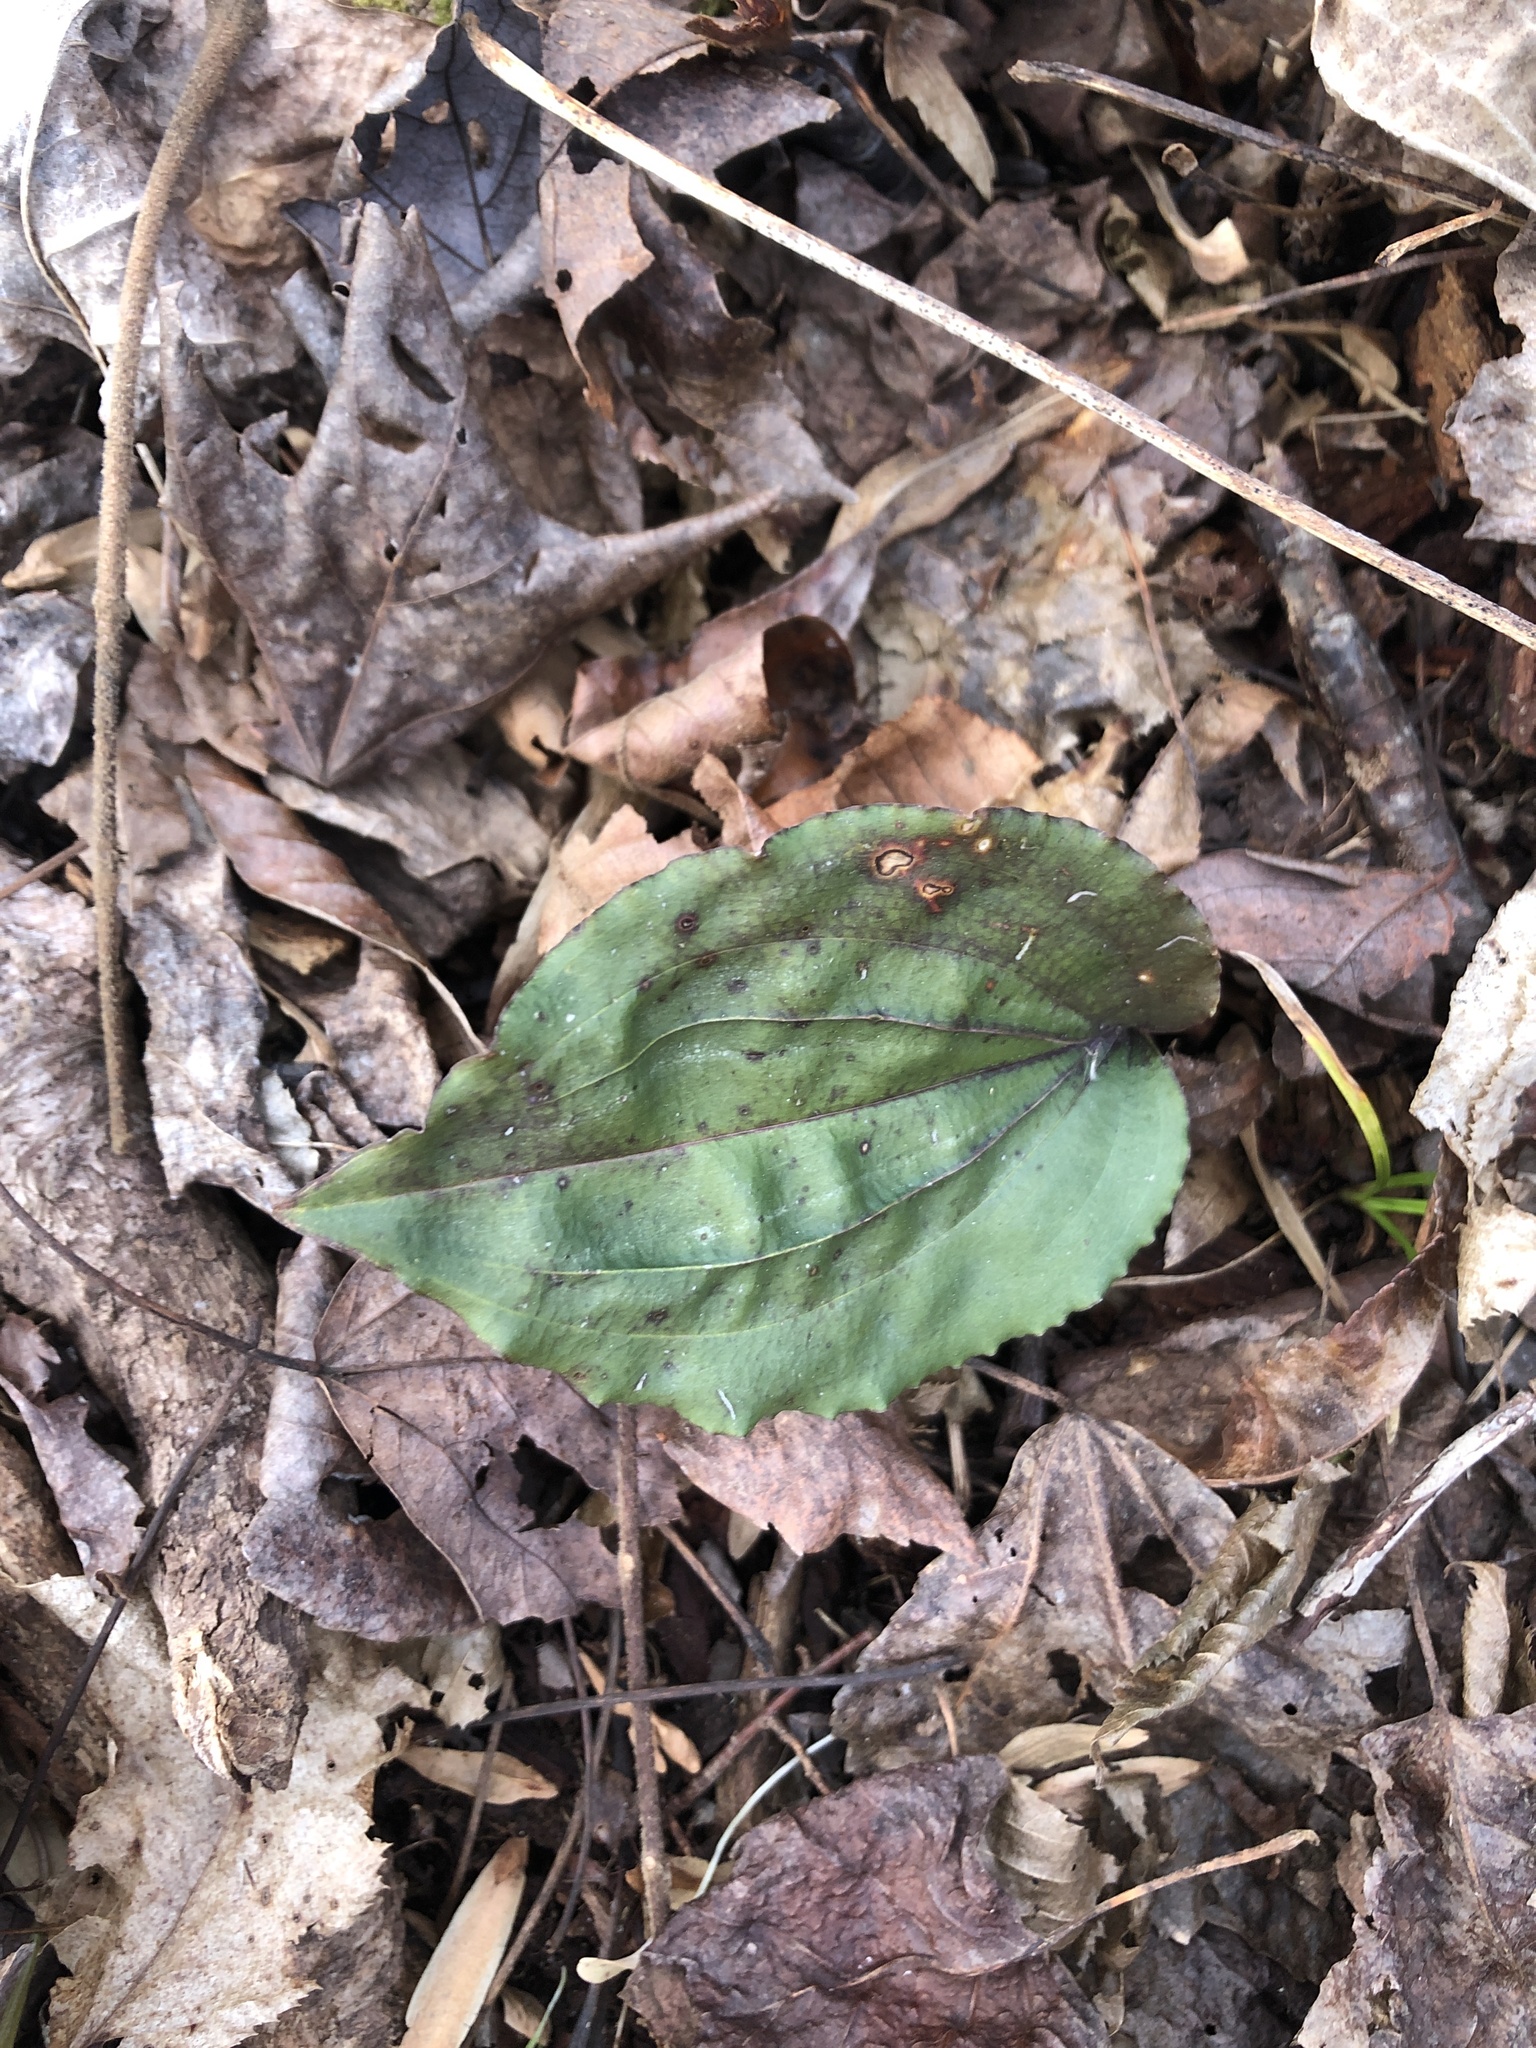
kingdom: Plantae
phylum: Tracheophyta
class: Liliopsida
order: Asparagales
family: Orchidaceae
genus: Tipularia
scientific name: Tipularia discolor
